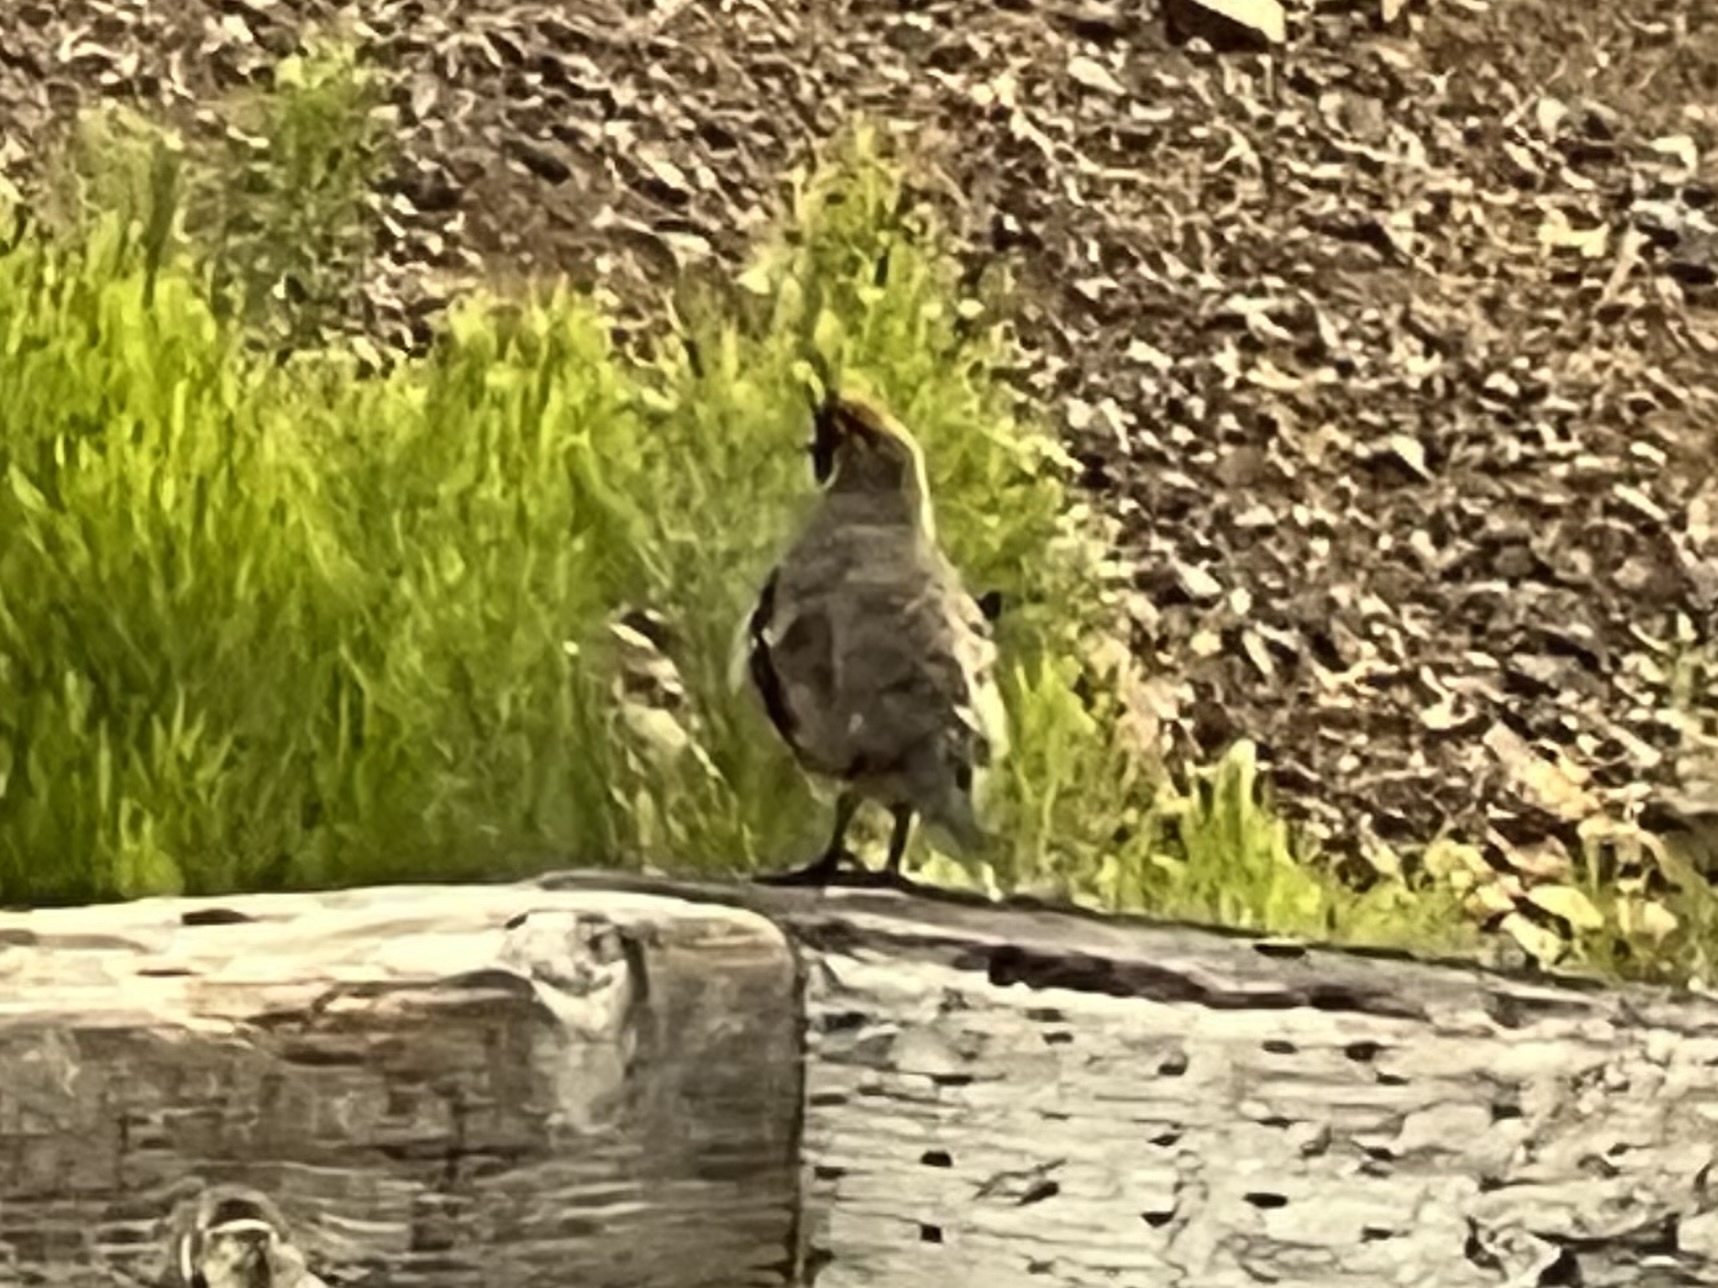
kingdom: Animalia
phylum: Chordata
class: Aves
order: Galliformes
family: Odontophoridae
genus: Callipepla
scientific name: Callipepla gambelii
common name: Gambel's quail
